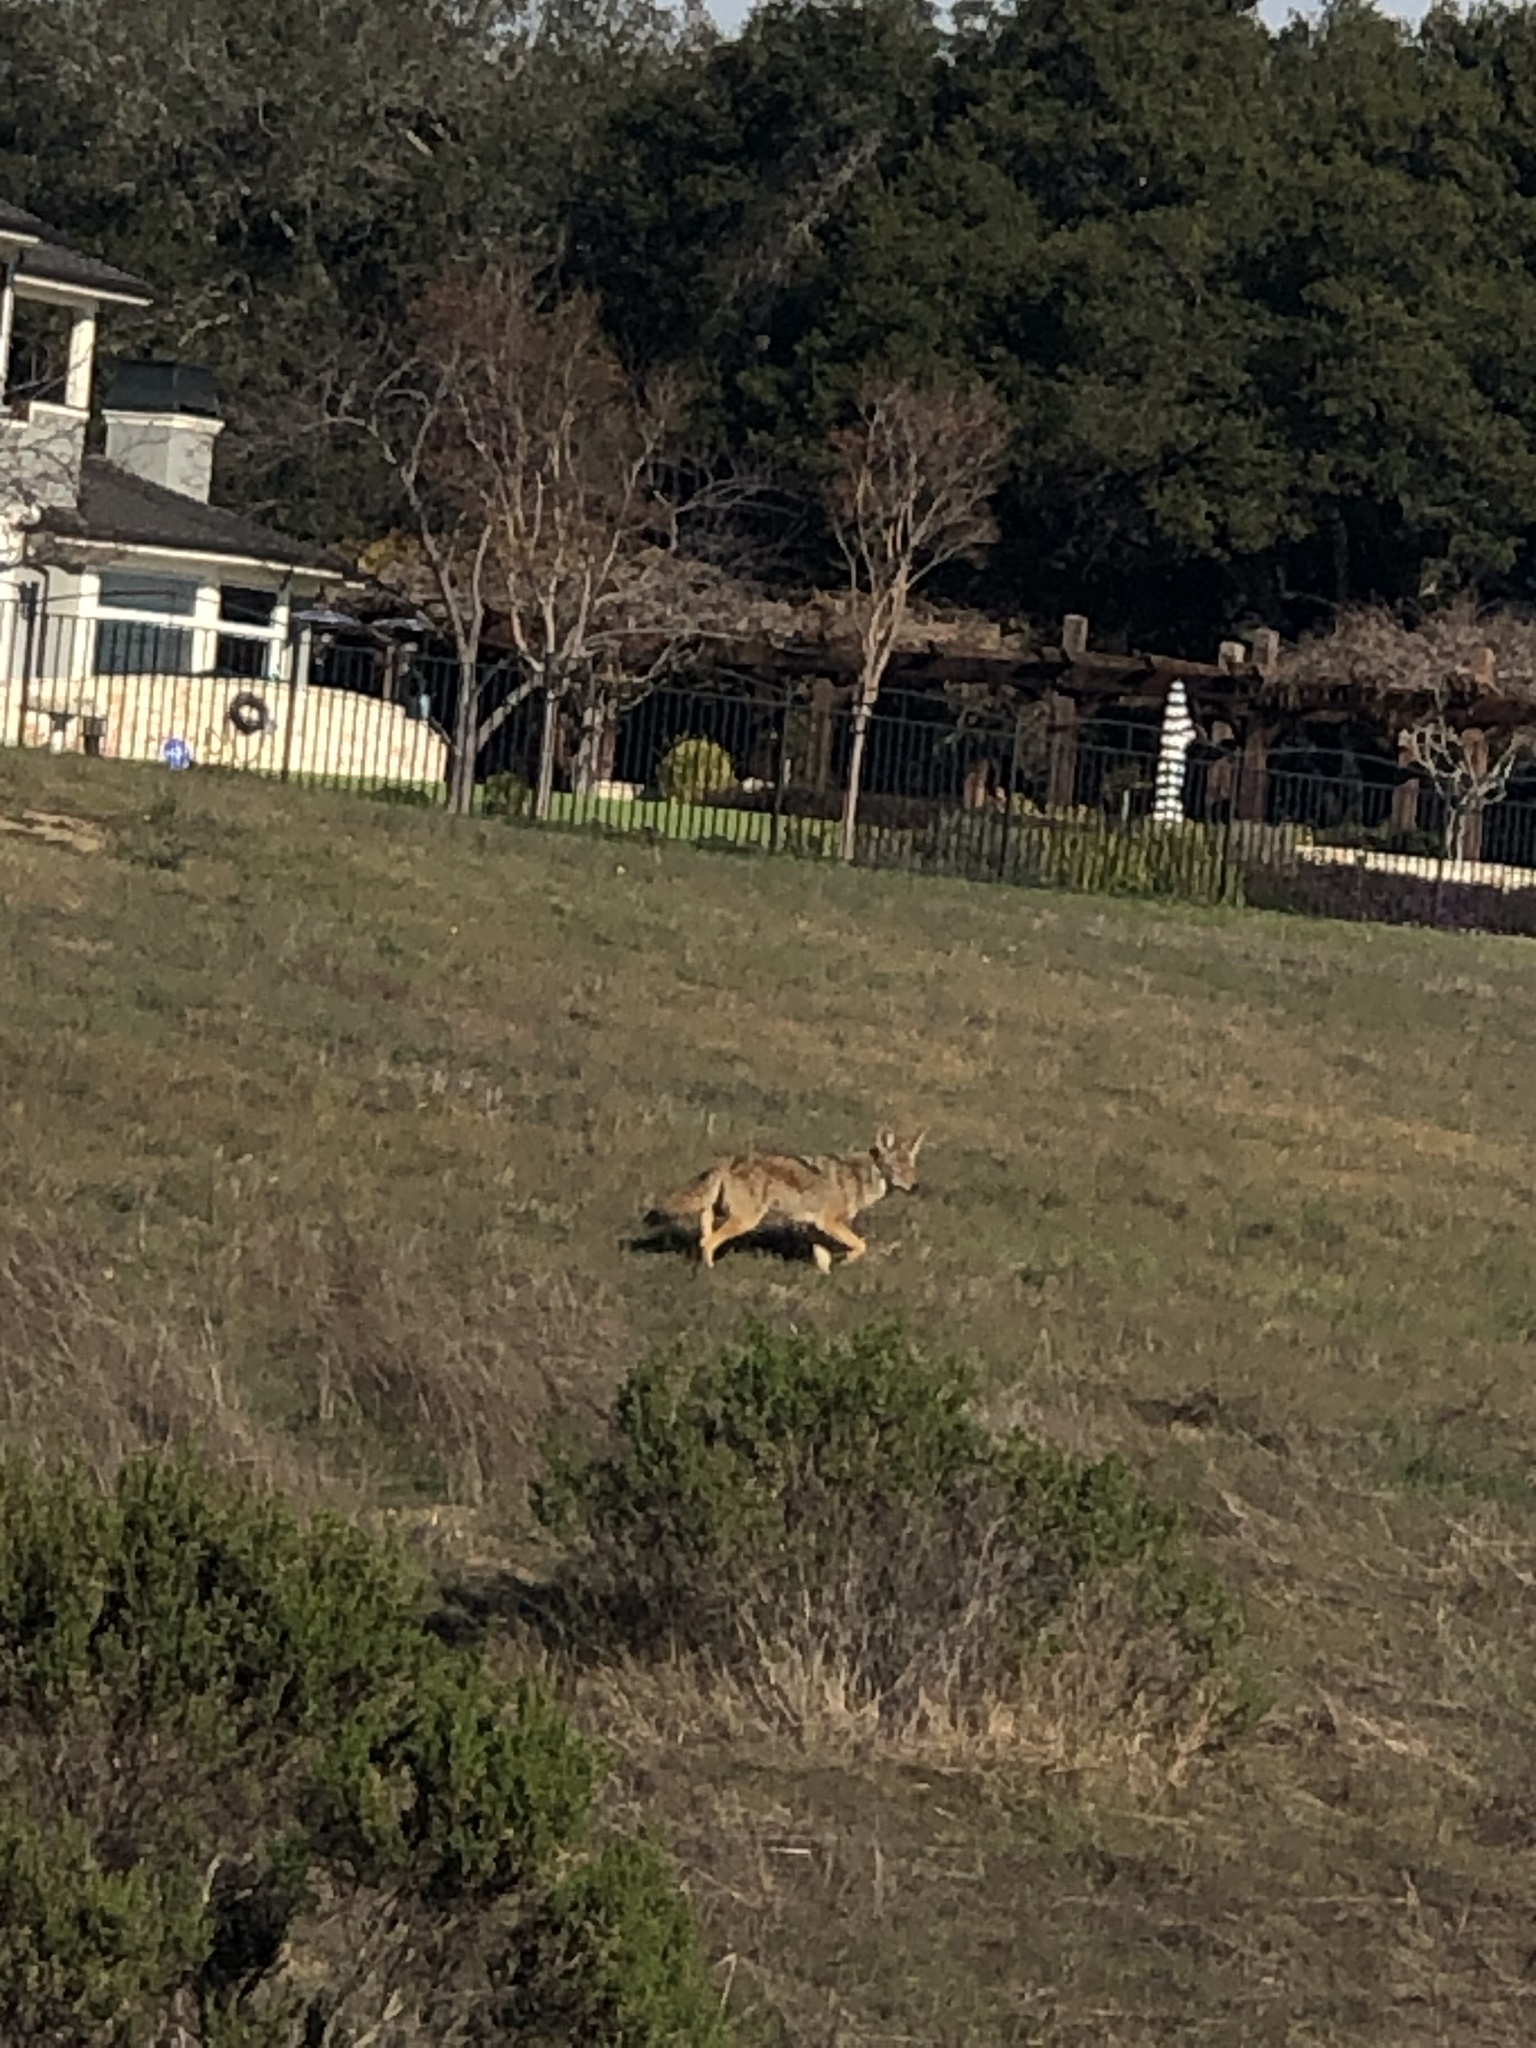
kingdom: Animalia
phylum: Chordata
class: Mammalia
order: Carnivora
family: Canidae
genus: Canis
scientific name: Canis latrans
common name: Coyote
